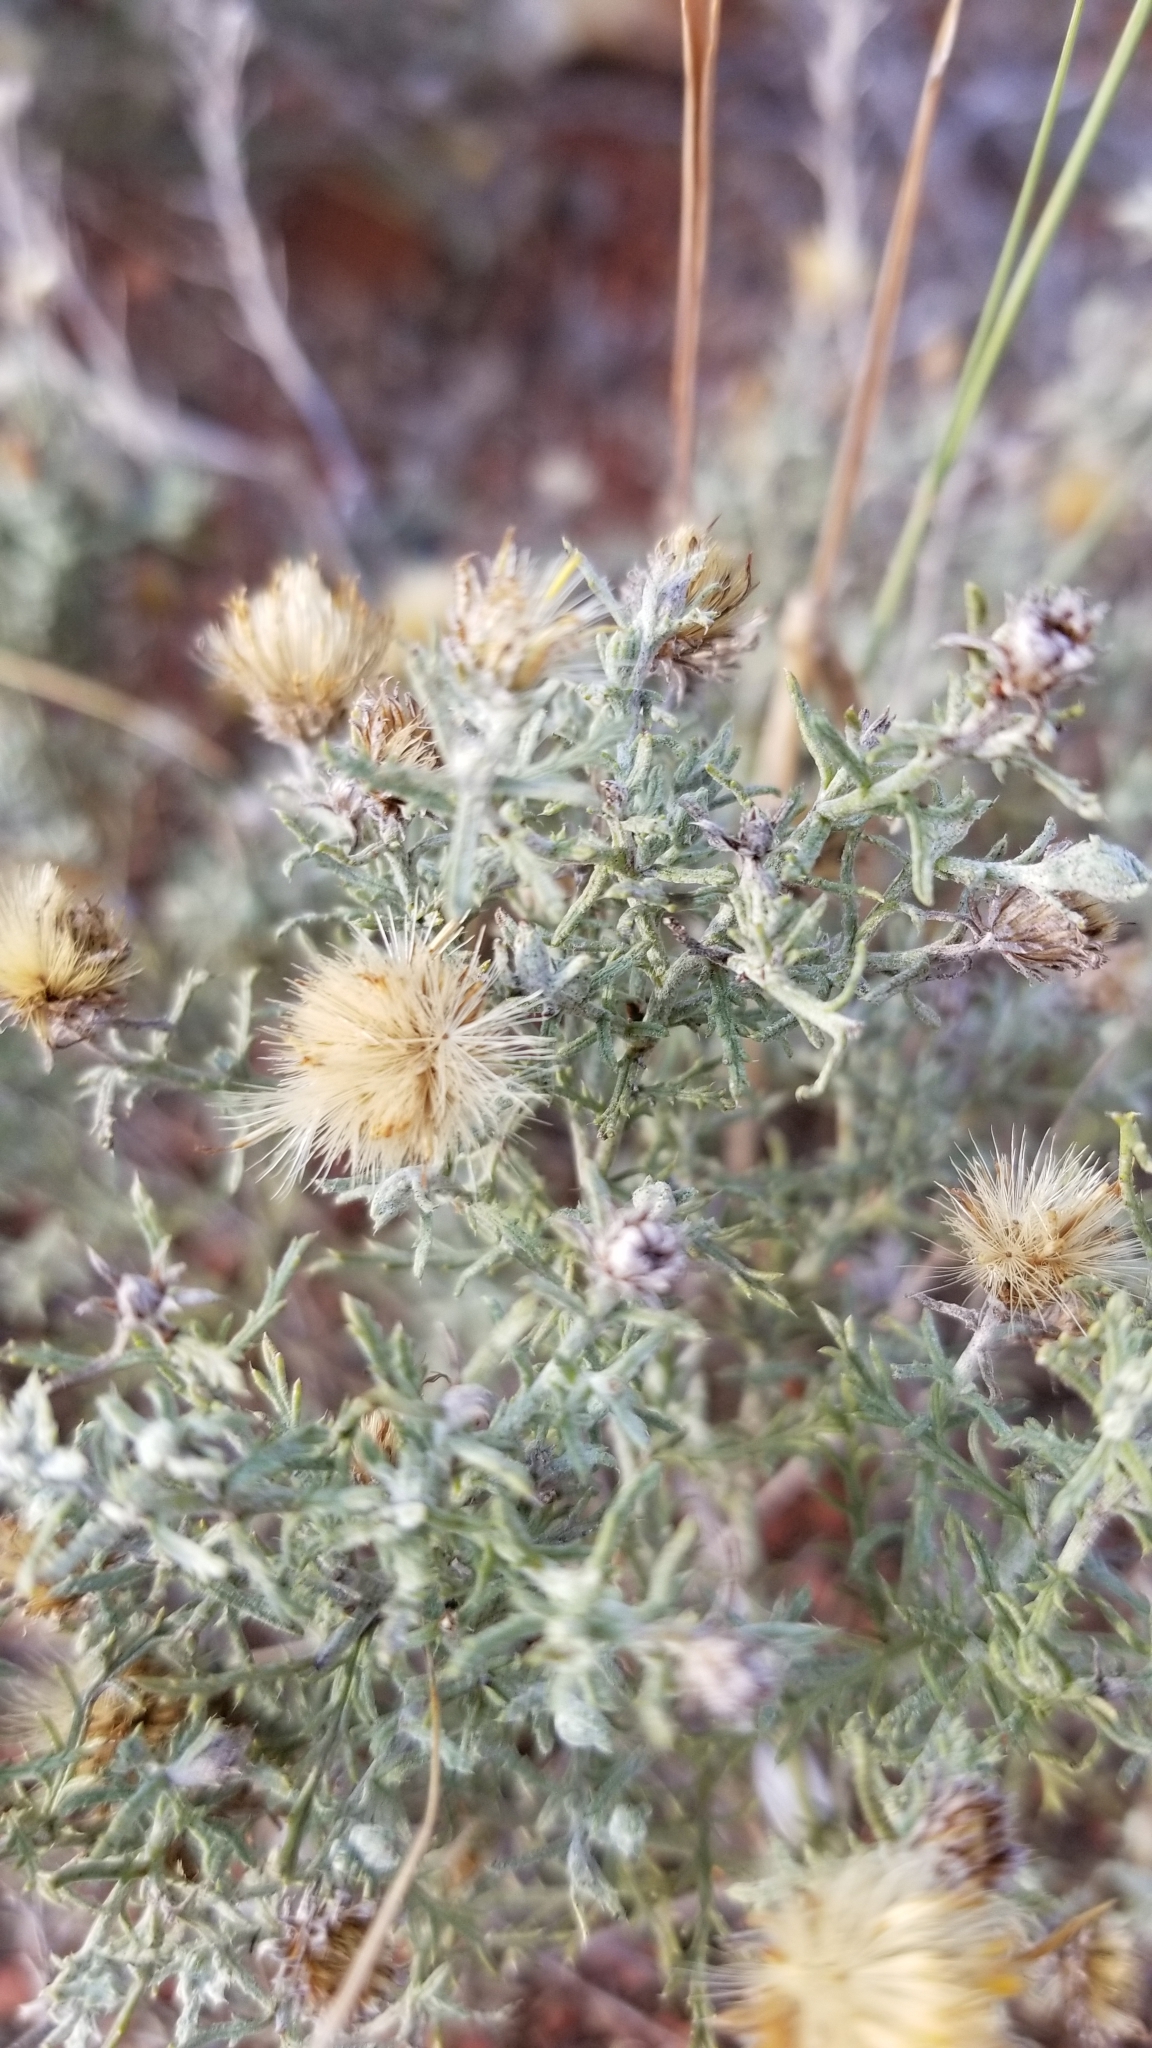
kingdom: Plantae
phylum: Tracheophyta
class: Magnoliopsida
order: Asterales
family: Asteraceae
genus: Xanthisma
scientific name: Xanthisma spinulosum
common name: Spiny goldenweed
